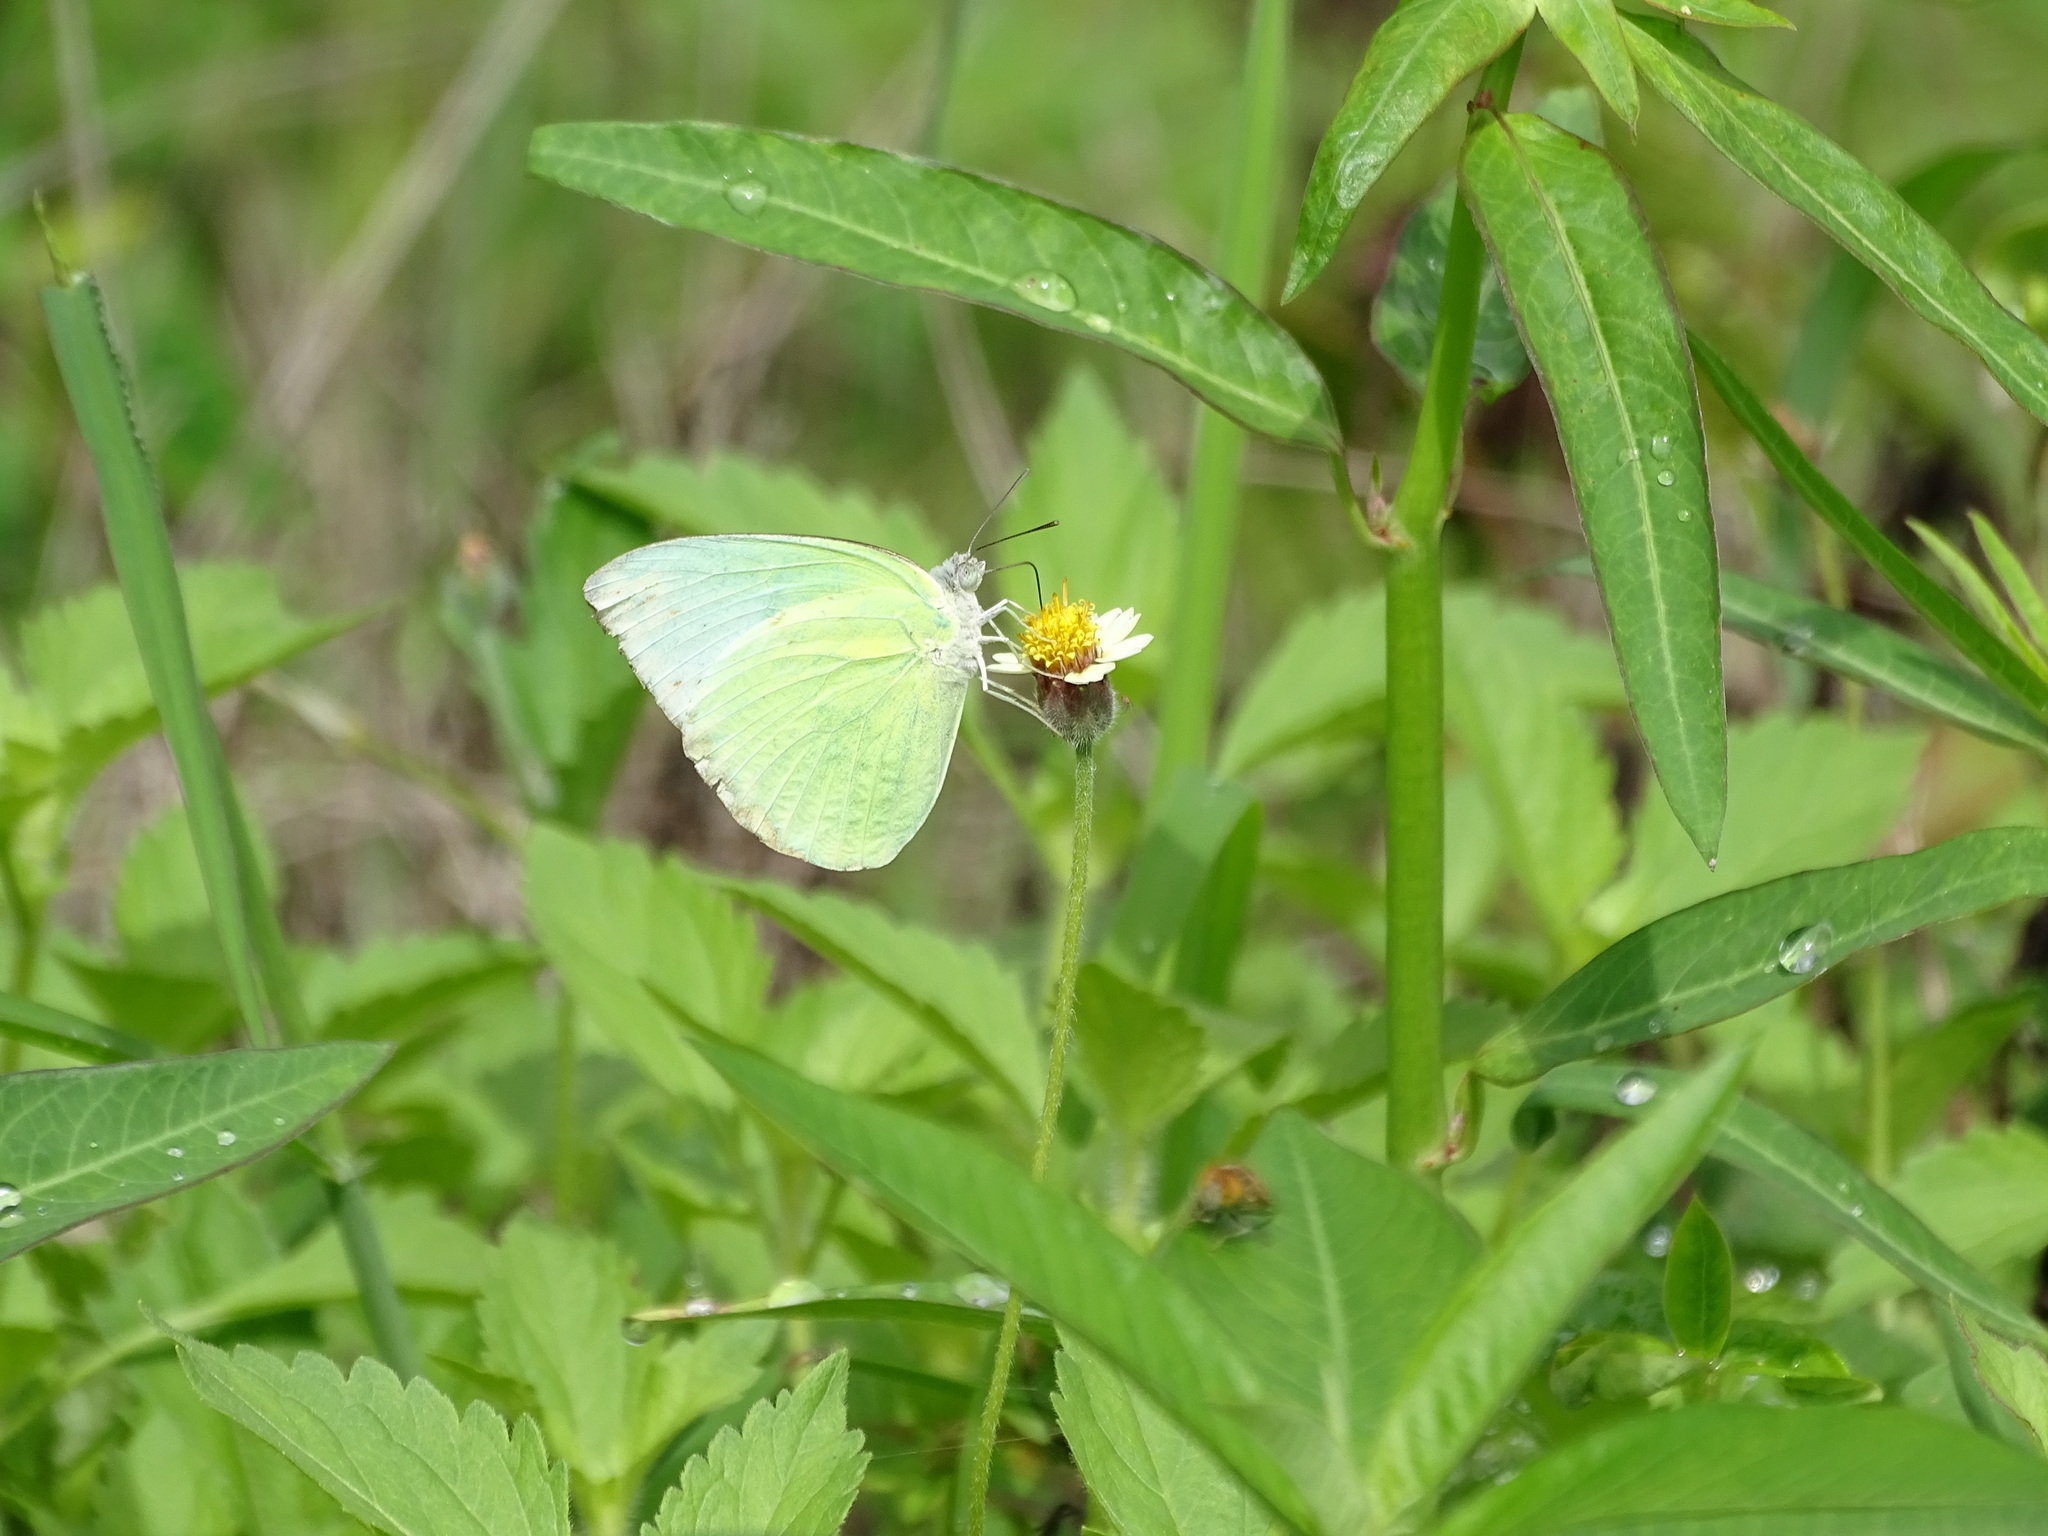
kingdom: Animalia
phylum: Arthropoda
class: Insecta
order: Lepidoptera
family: Pieridae
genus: Catopsilia
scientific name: Catopsilia pomona
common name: Common emigrant
